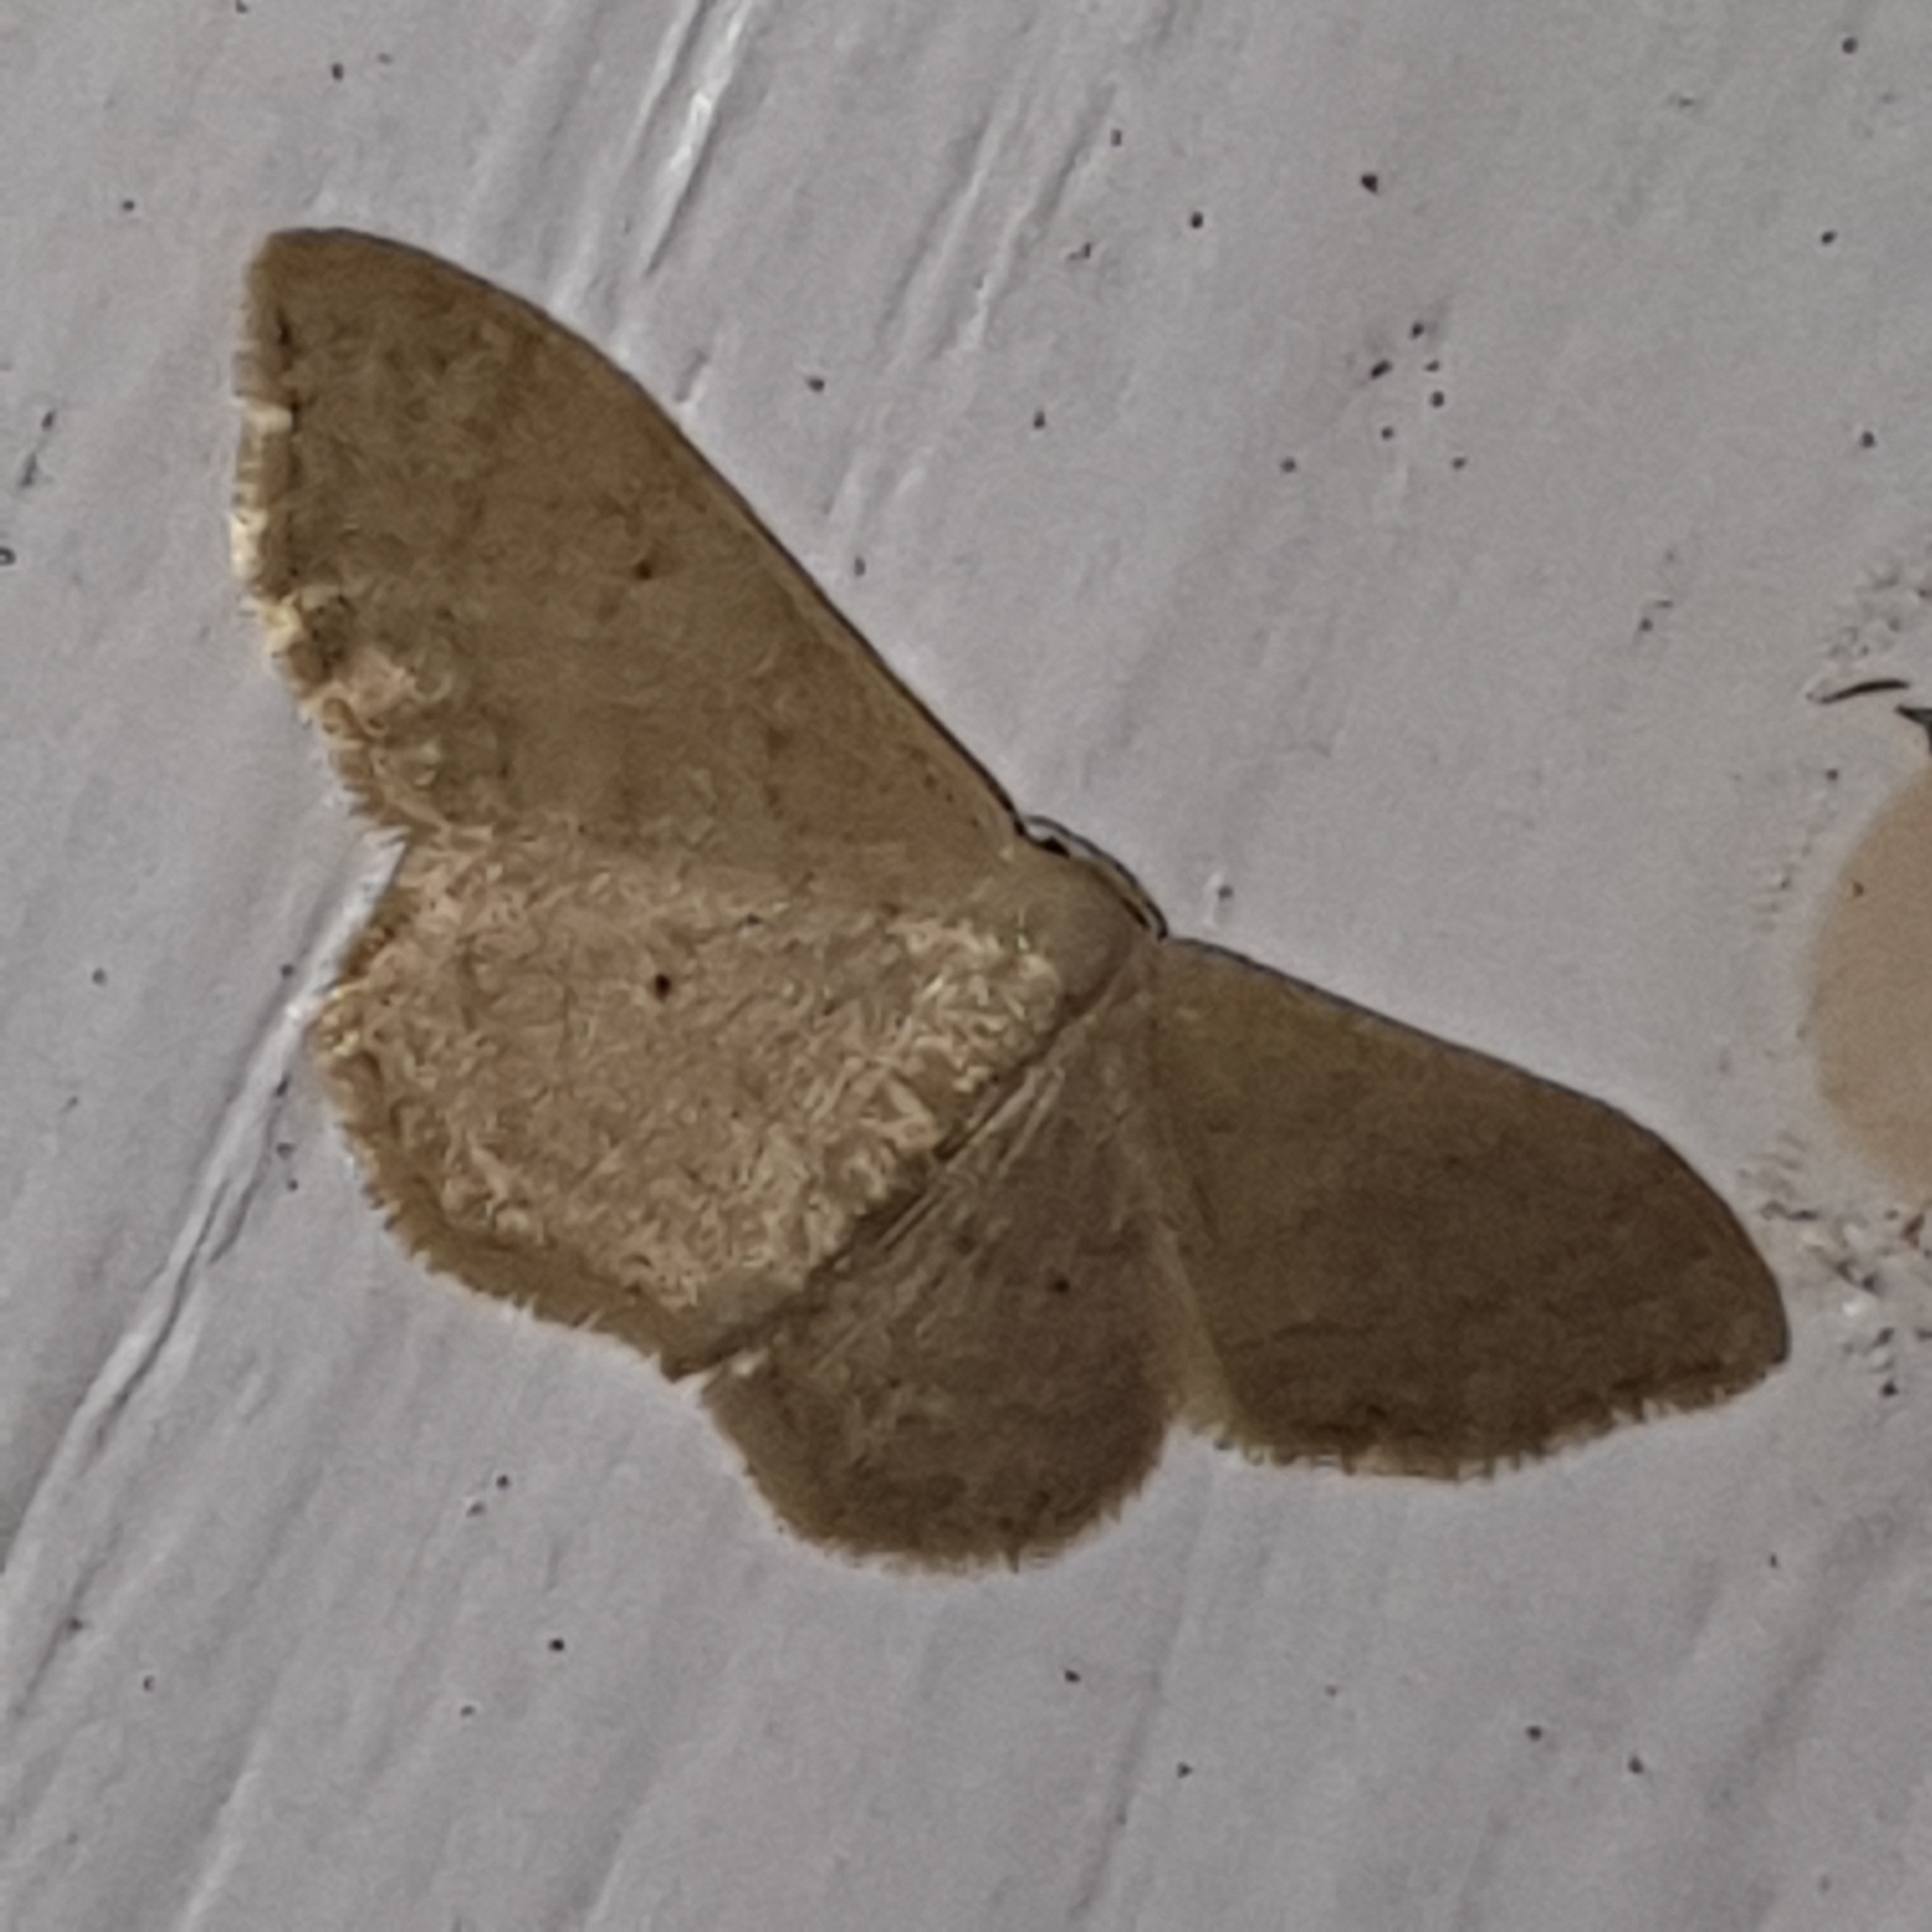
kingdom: Animalia
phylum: Arthropoda
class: Insecta
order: Lepidoptera
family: Geometridae
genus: Idaea
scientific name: Idaea straminata
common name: Plain wave
